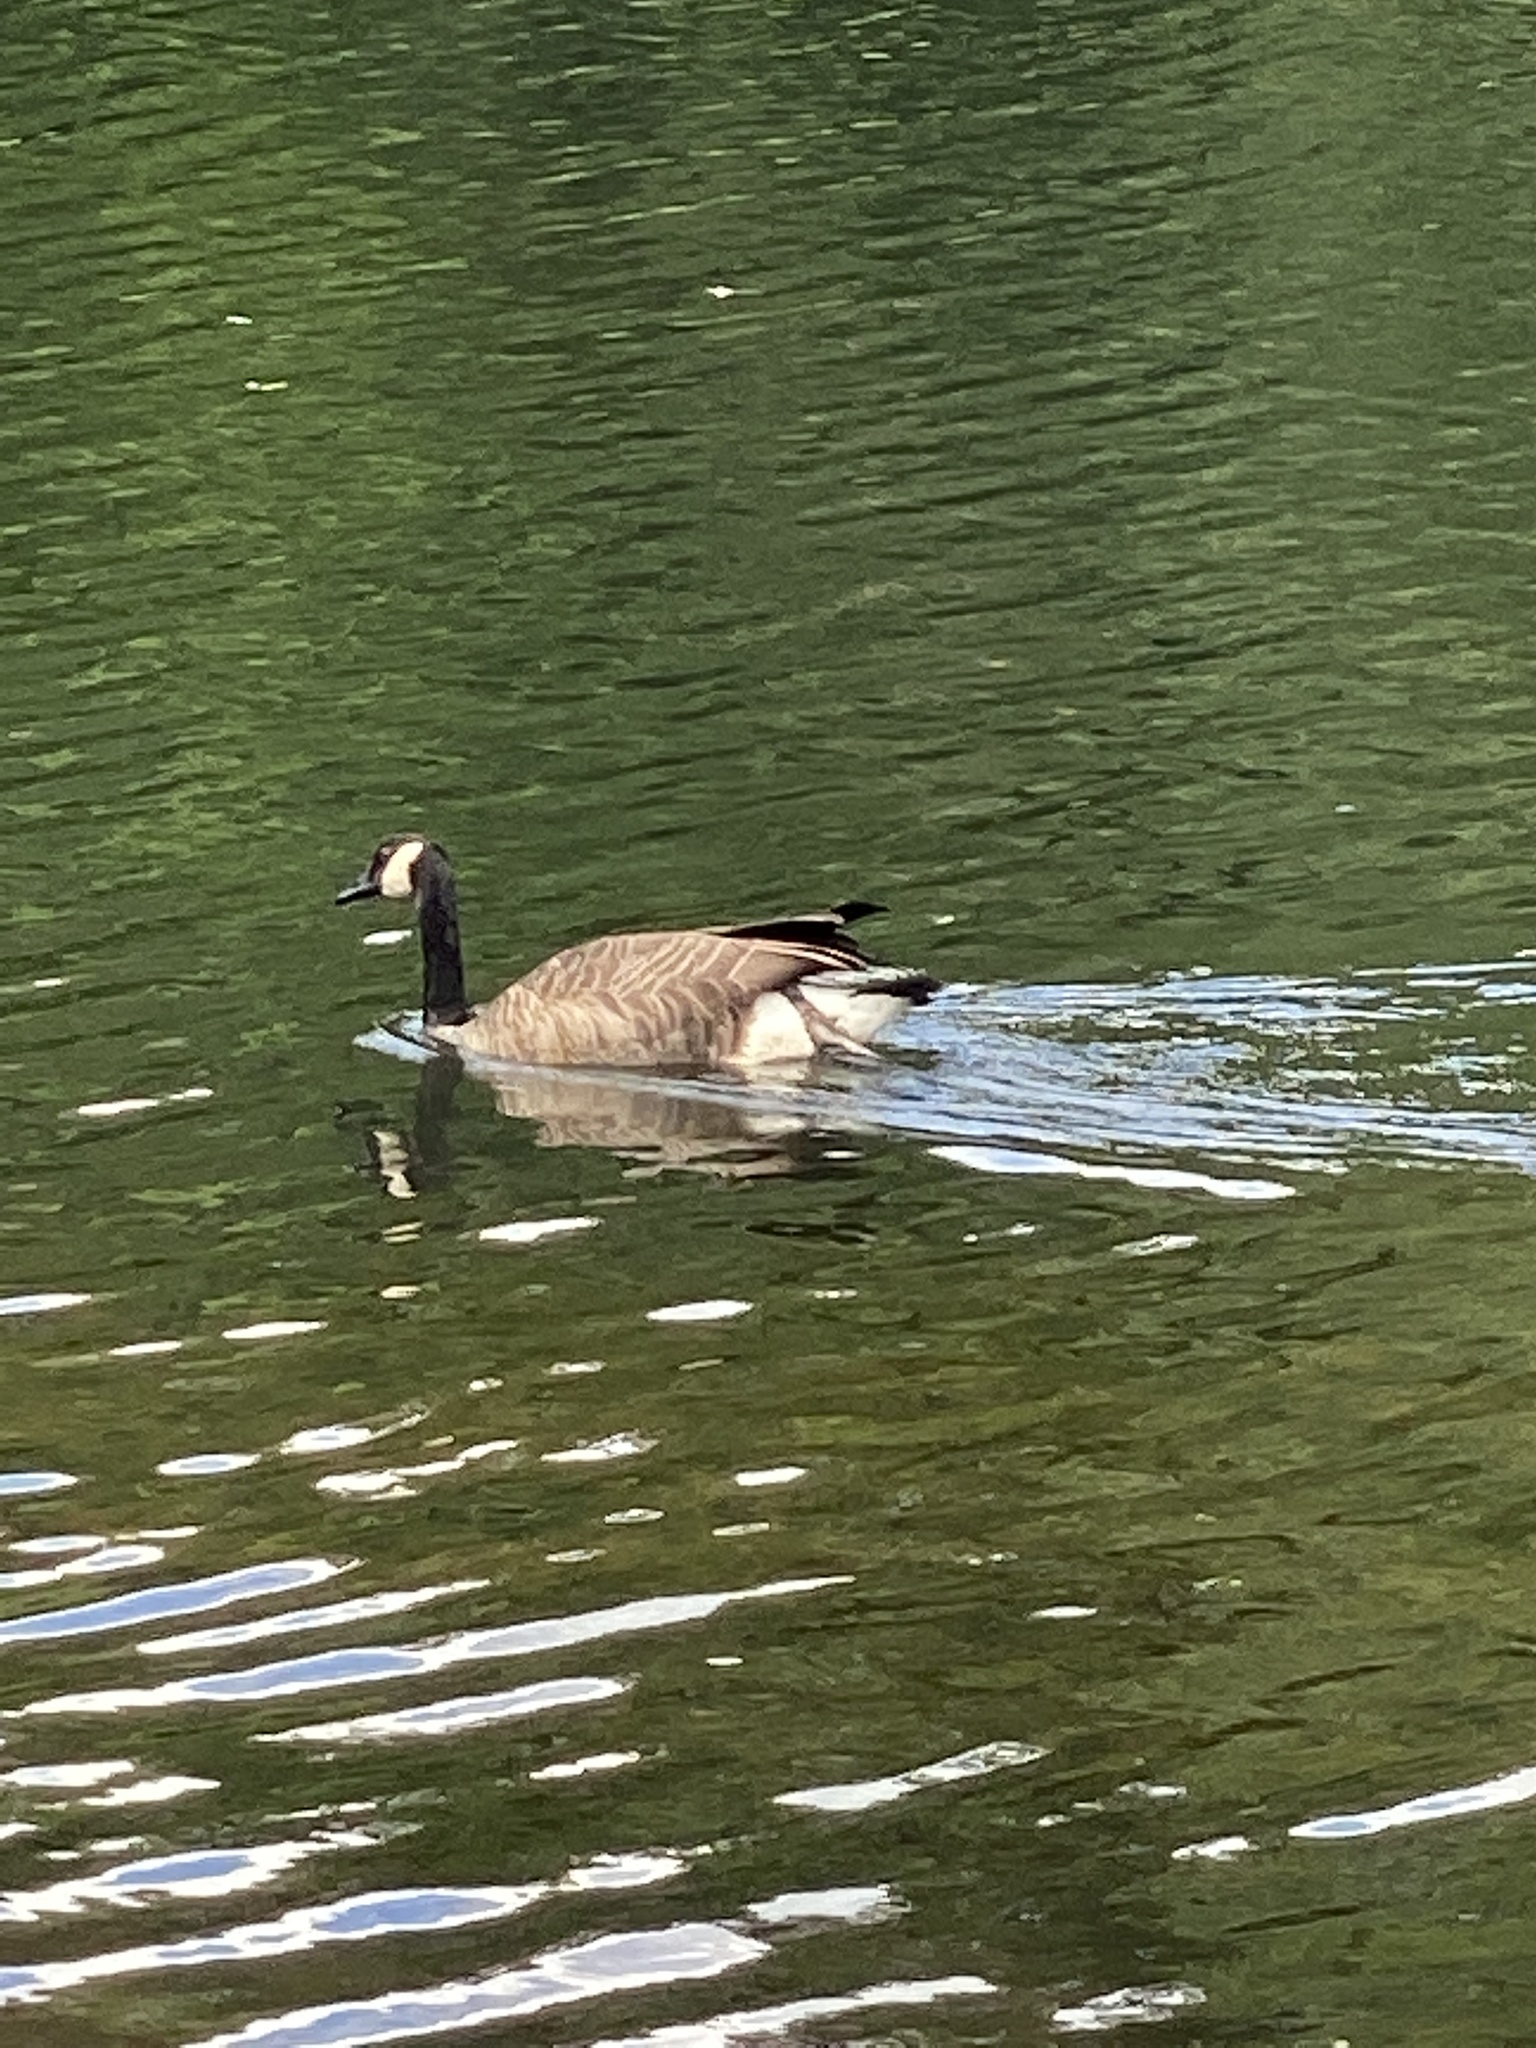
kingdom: Animalia
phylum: Chordata
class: Aves
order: Anseriformes
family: Anatidae
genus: Branta
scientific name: Branta canadensis
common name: Canada goose
